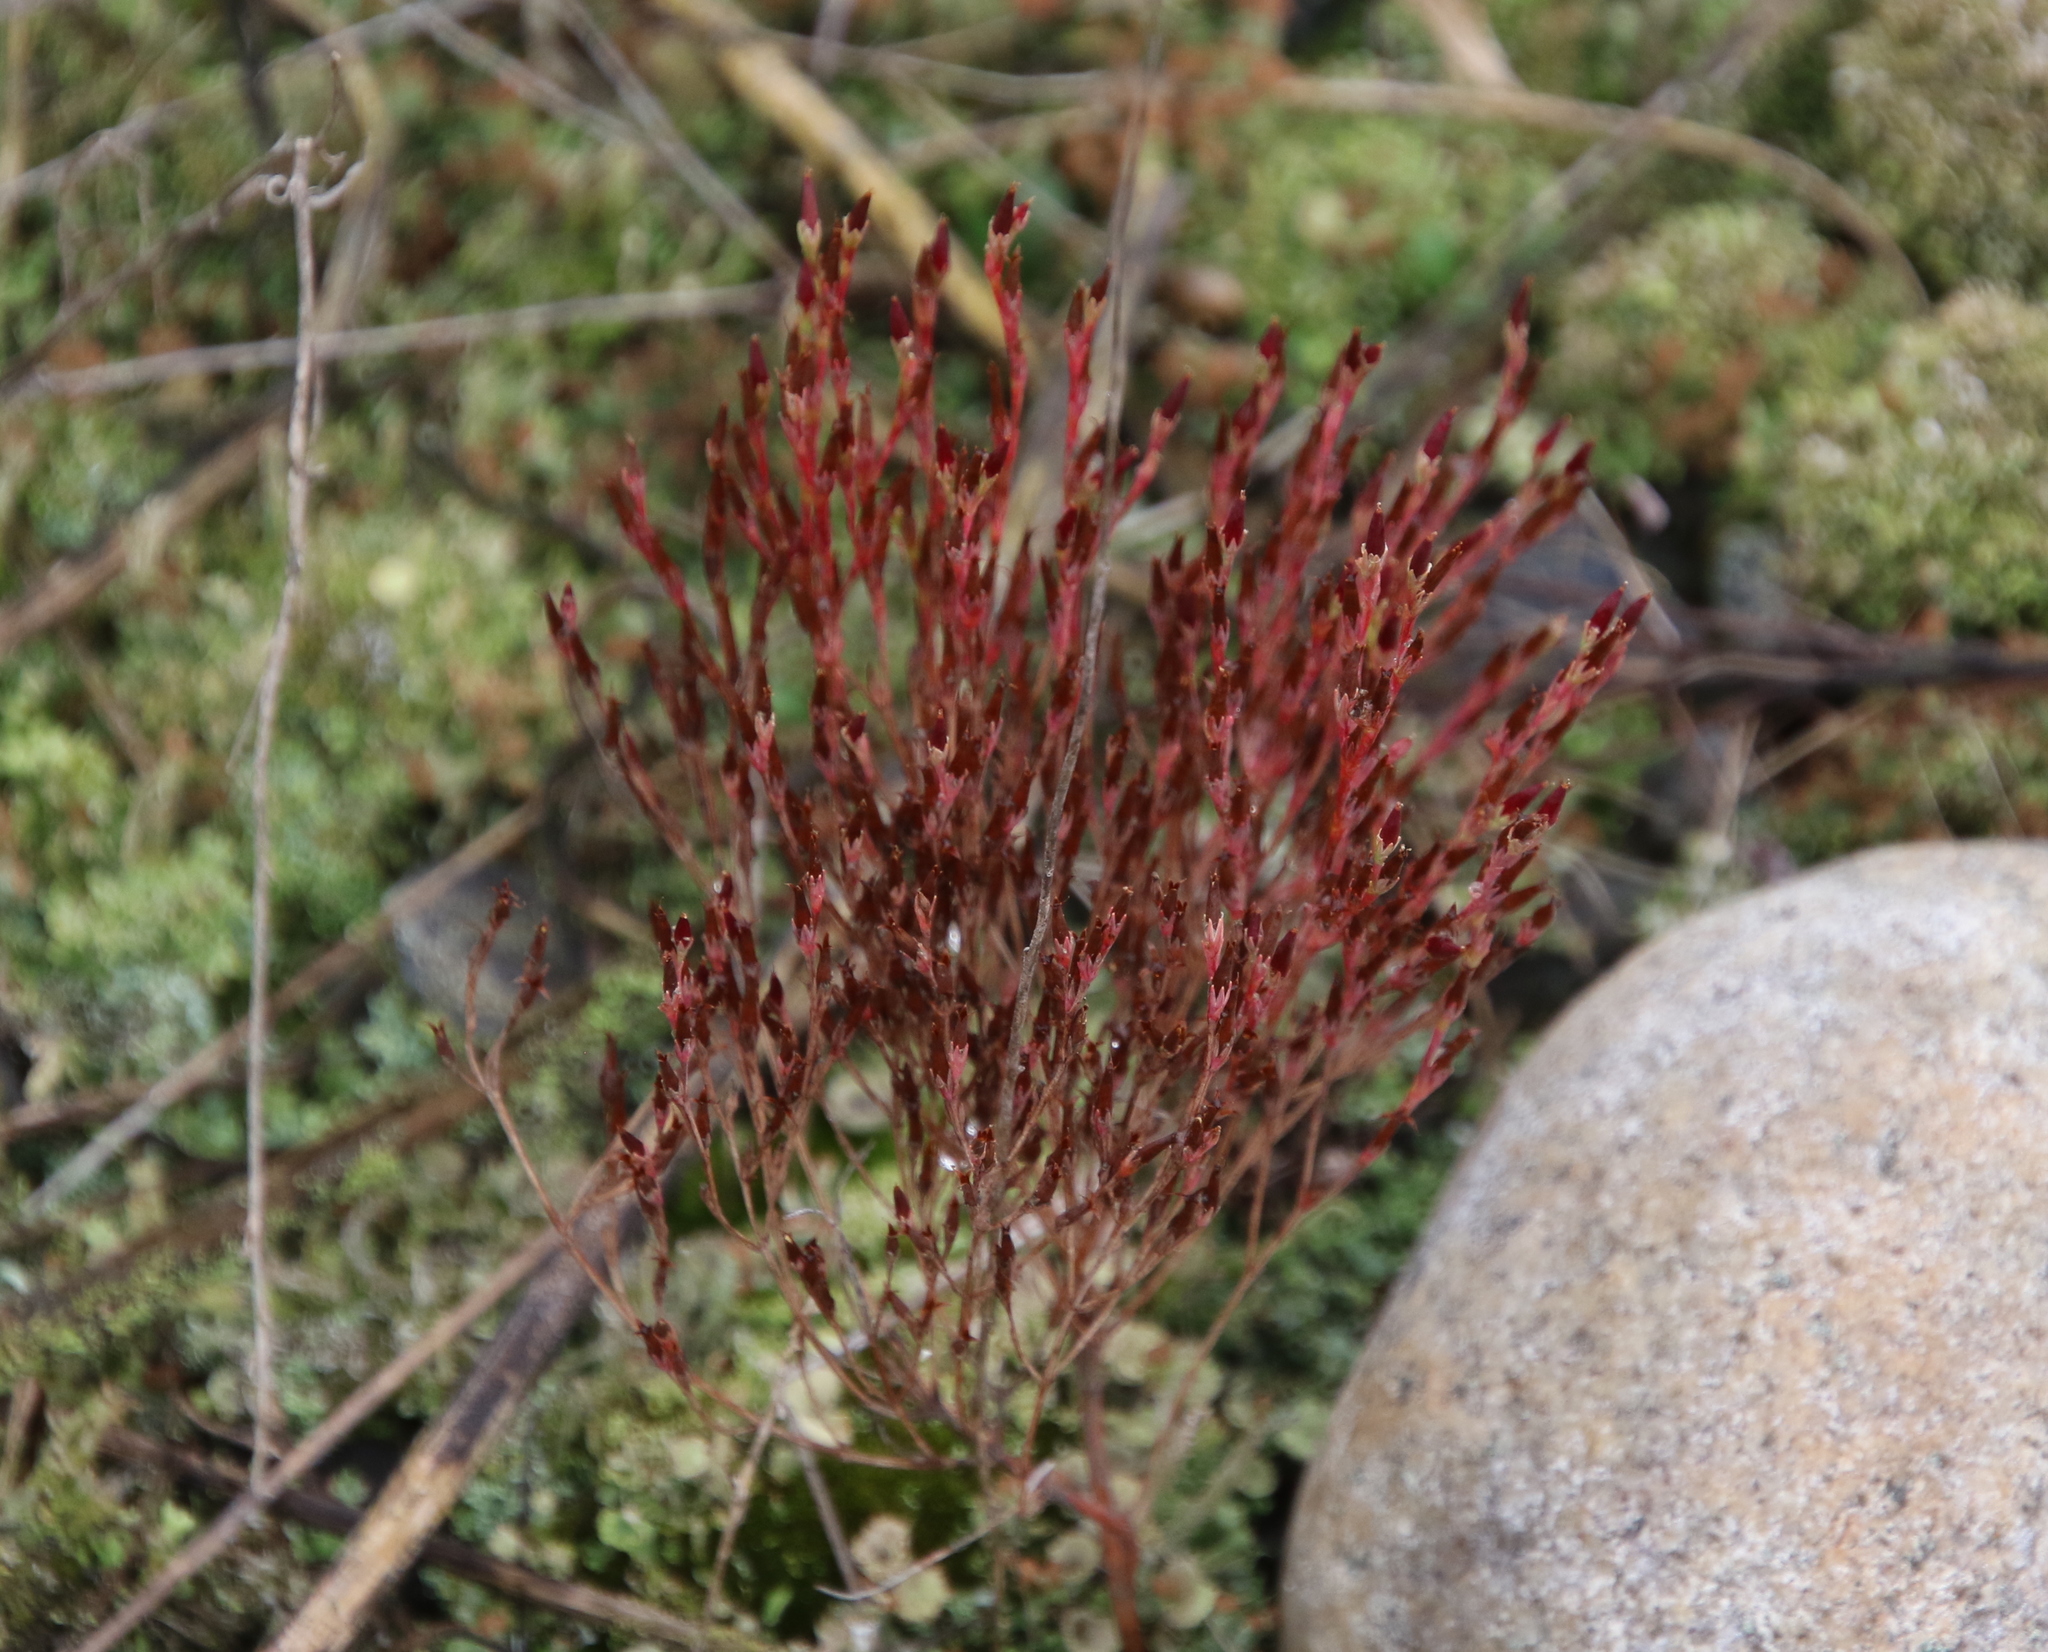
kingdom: Plantae
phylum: Tracheophyta
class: Magnoliopsida
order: Malpighiales
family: Hypericaceae
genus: Hypericum
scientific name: Hypericum gentianoides
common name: Gentian-leaved st. john's-wort
